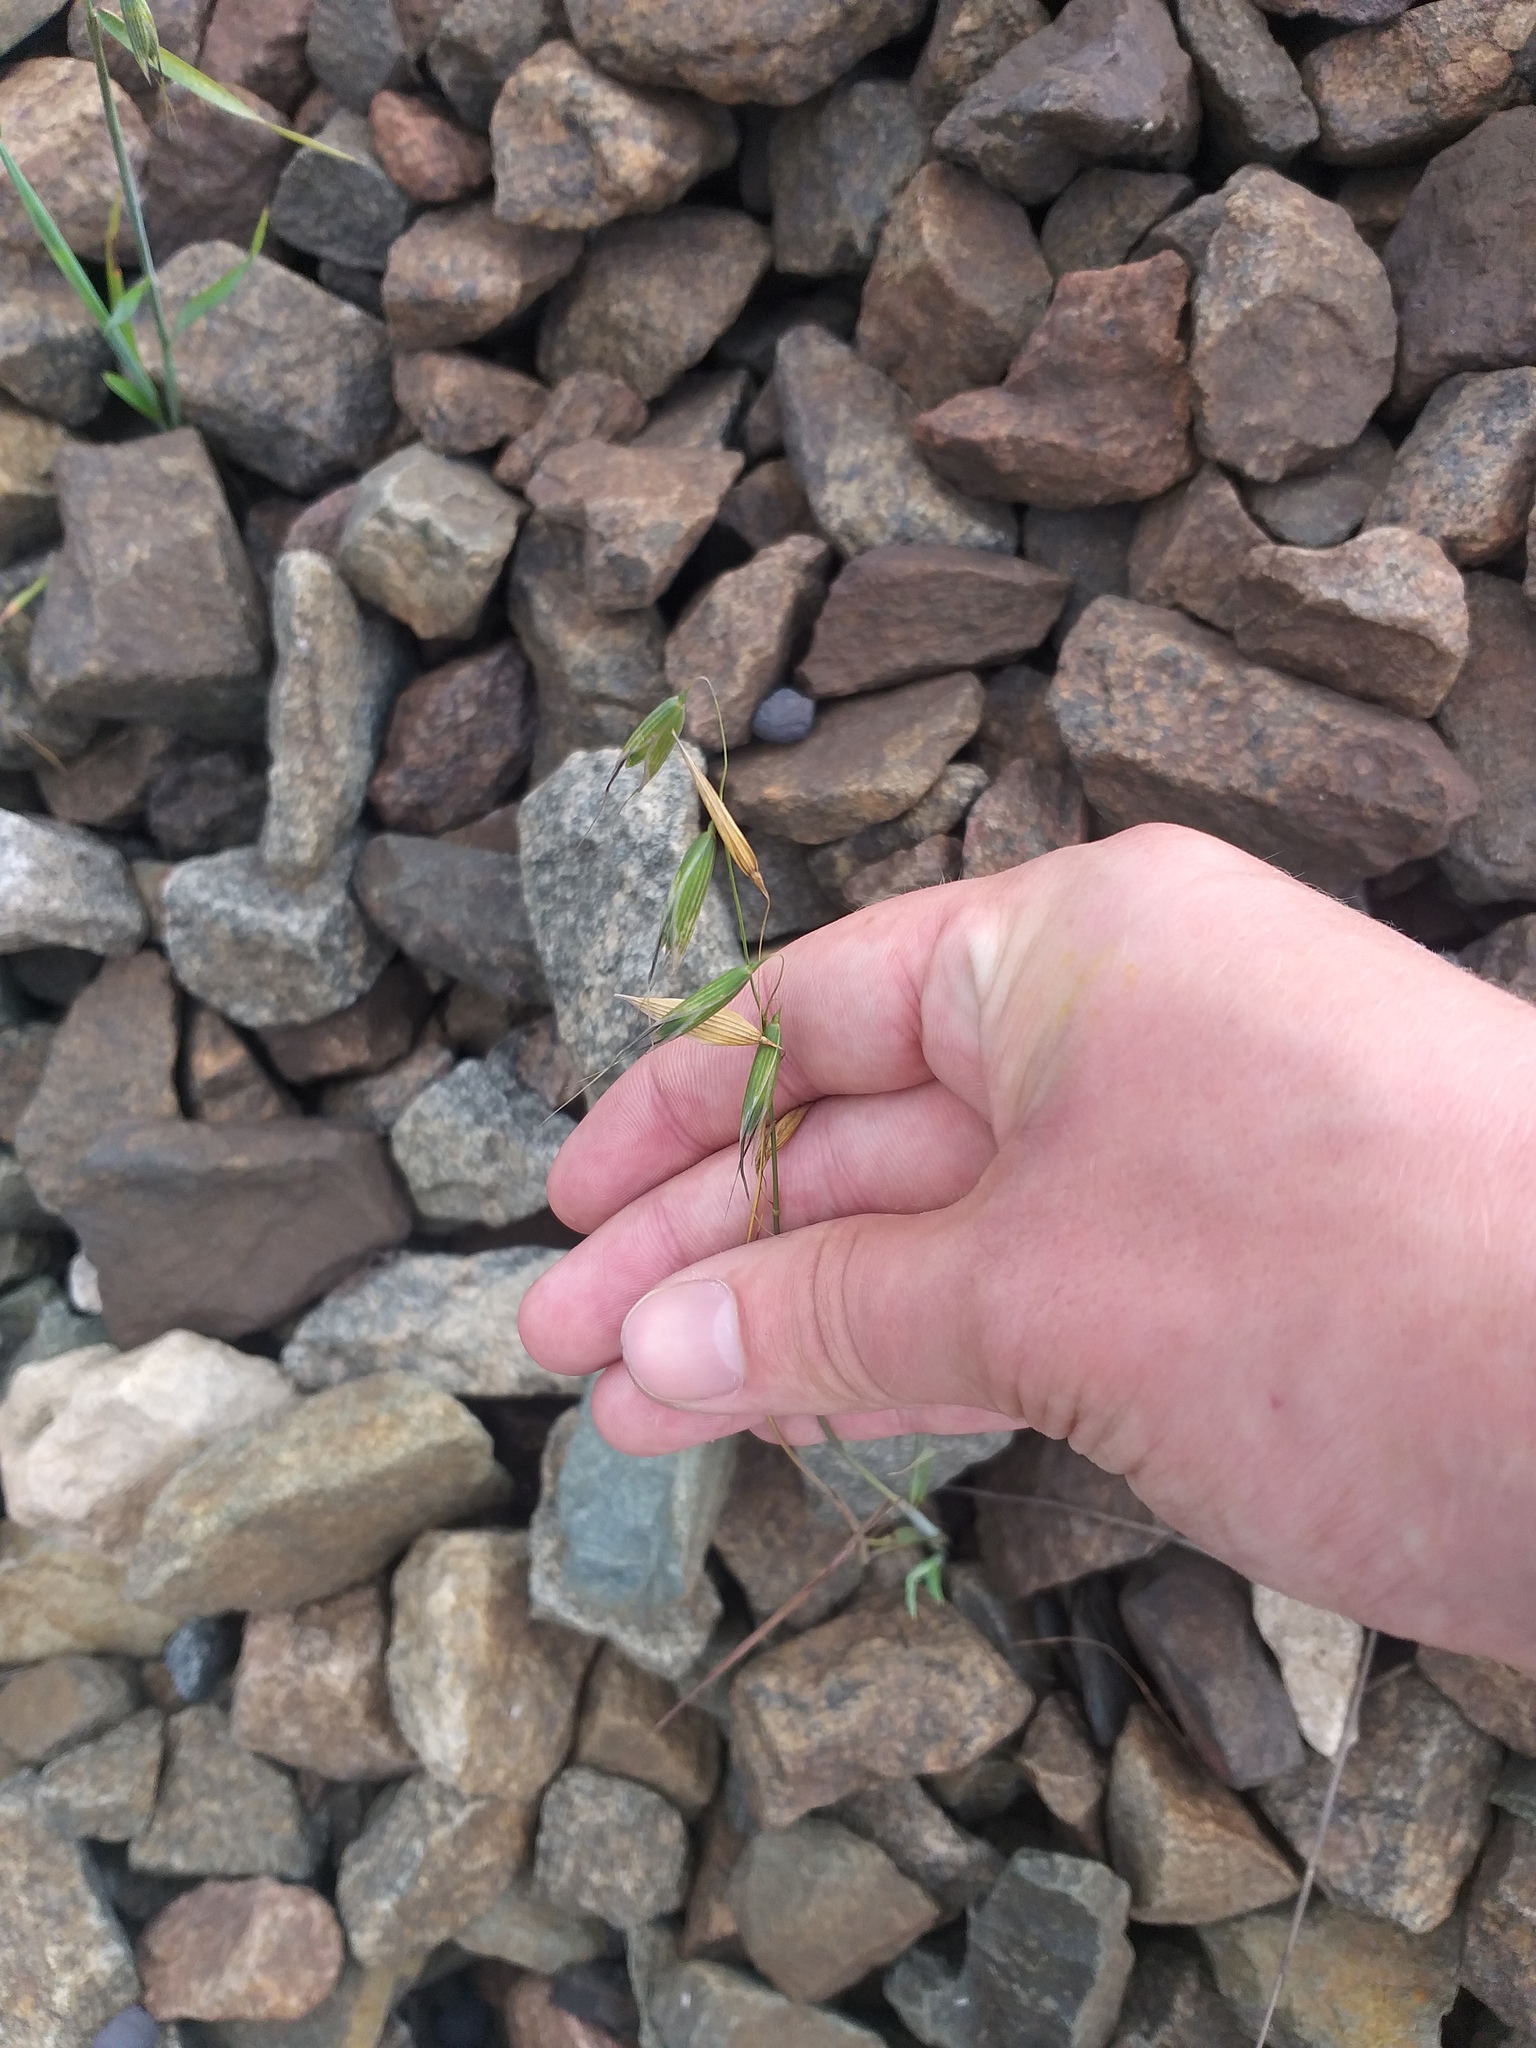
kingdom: Plantae
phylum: Tracheophyta
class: Liliopsida
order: Poales
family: Poaceae
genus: Avena
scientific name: Avena fatua
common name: Wild oat
